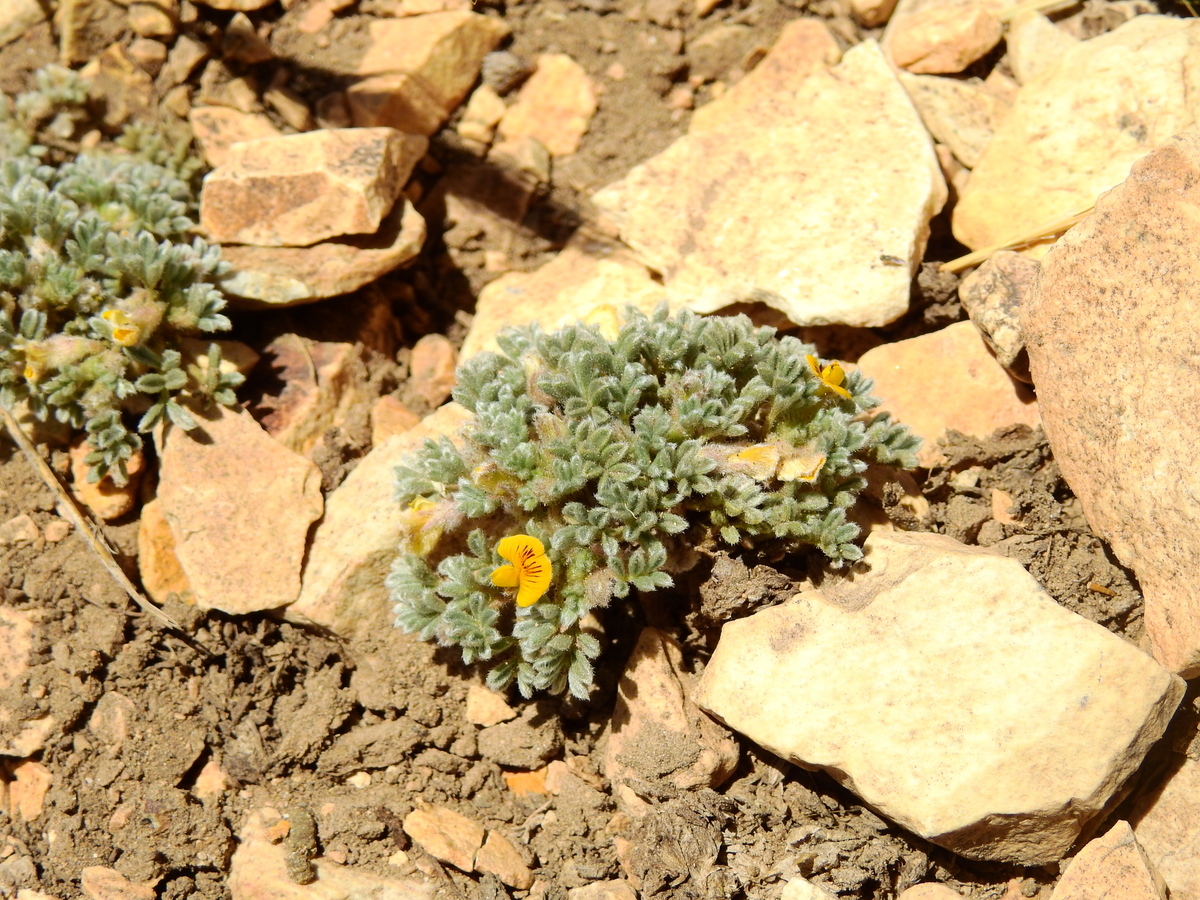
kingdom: Plantae
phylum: Tracheophyta
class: Magnoliopsida
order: Fabales
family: Fabaceae
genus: Adesmia
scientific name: Adesmia glomerula
